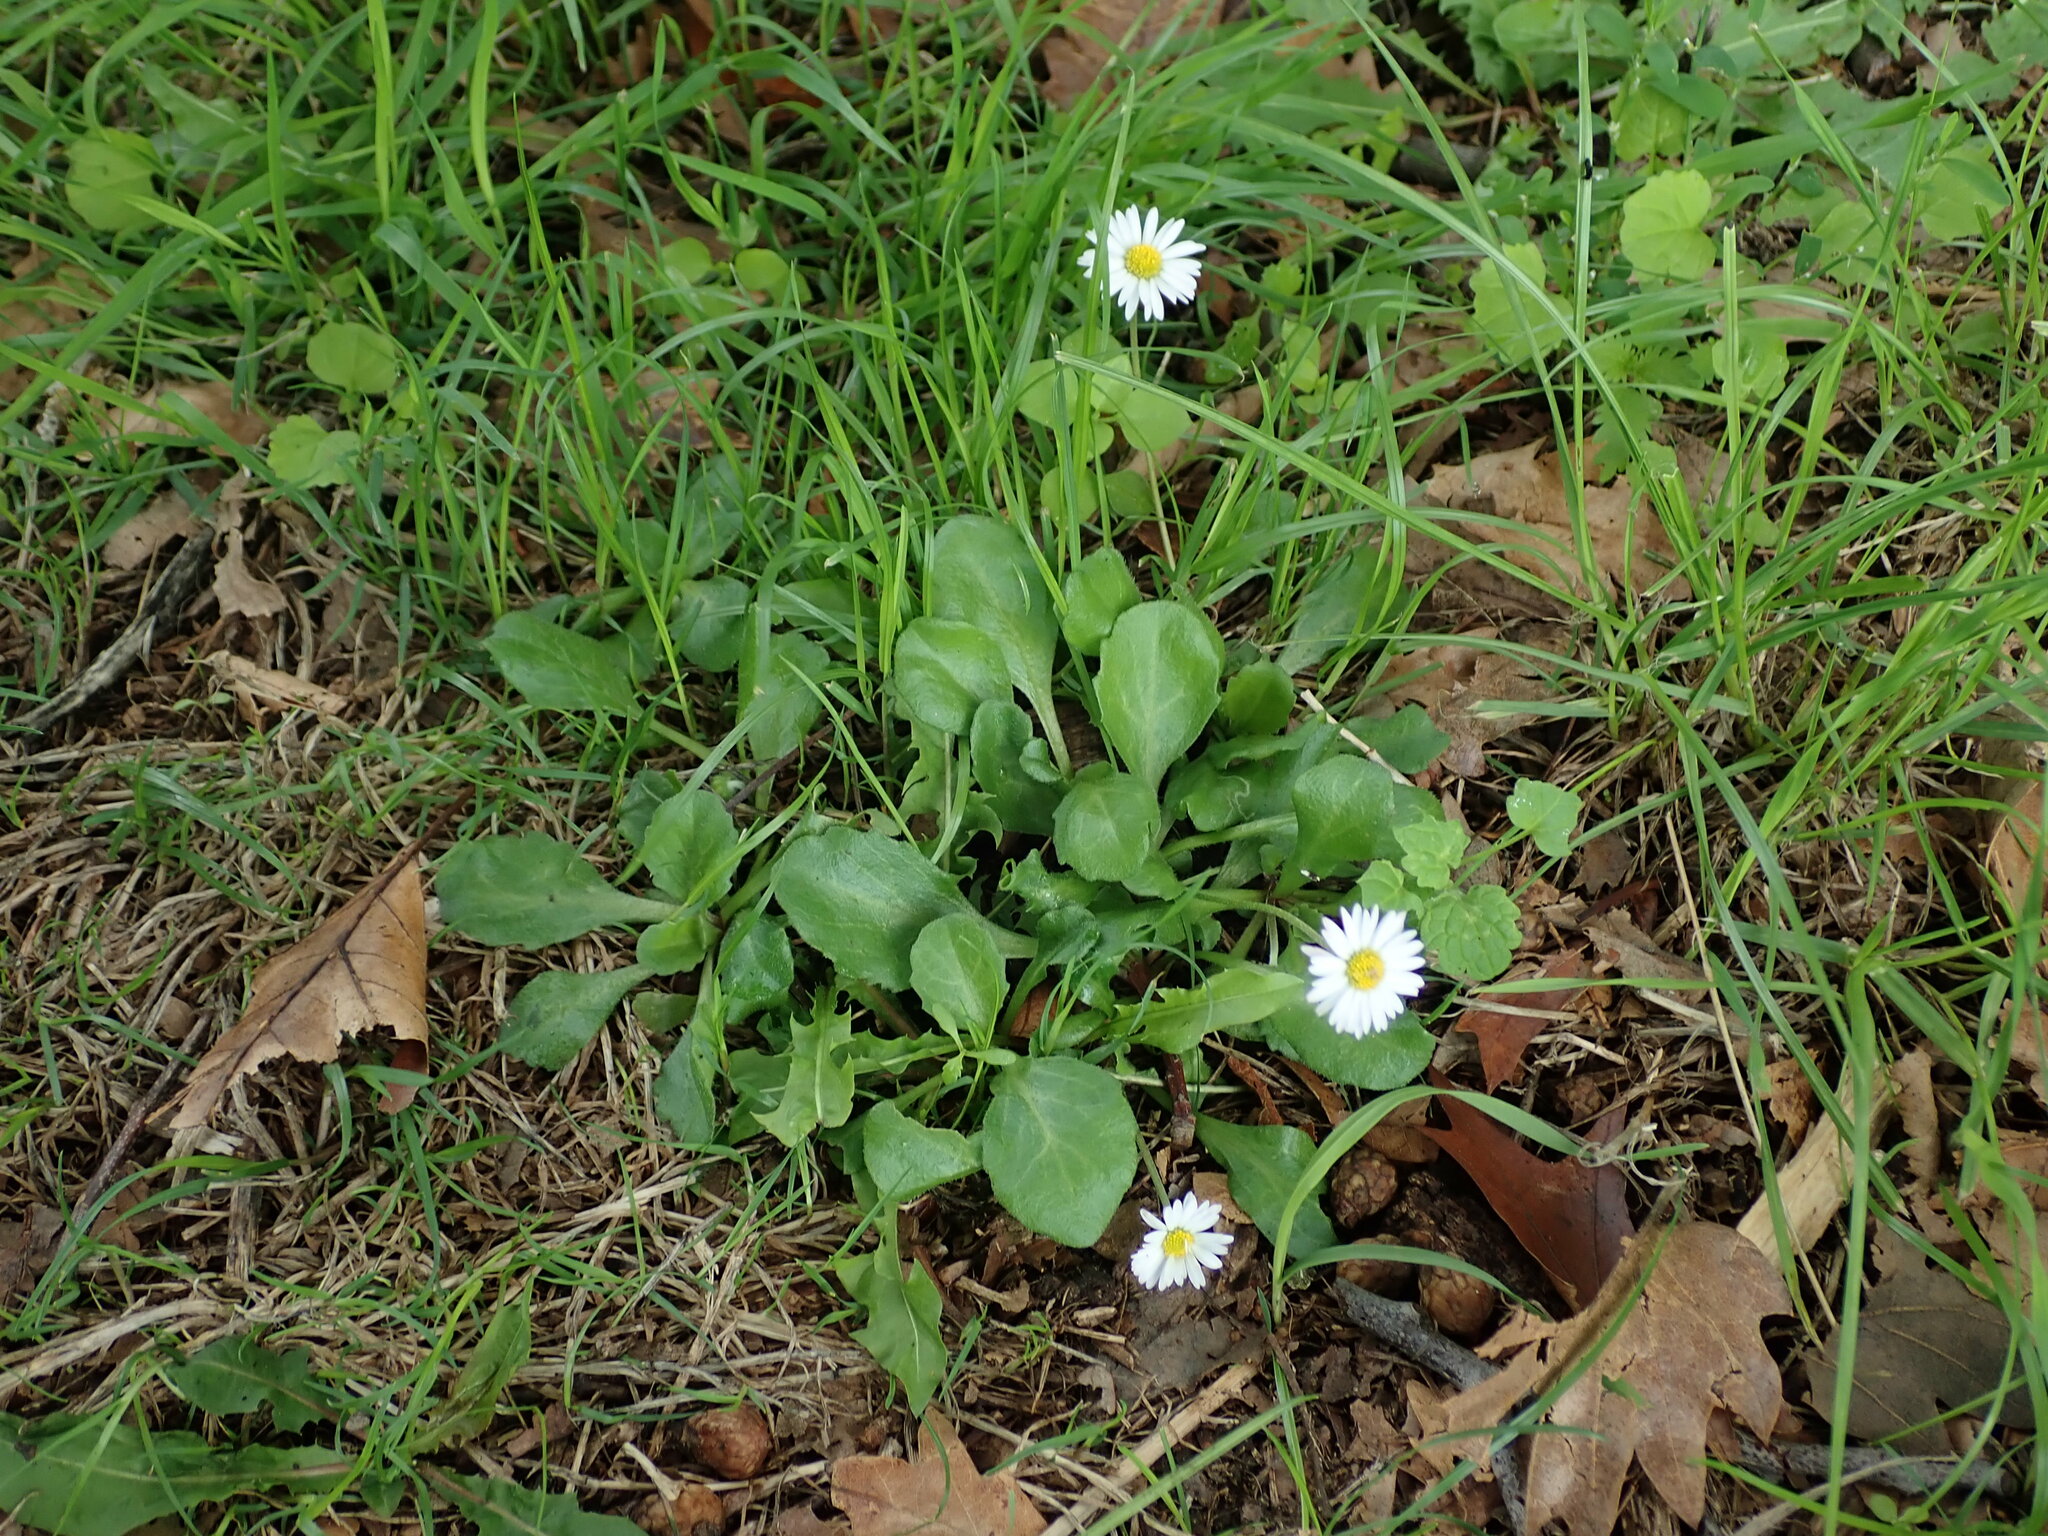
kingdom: Plantae
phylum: Tracheophyta
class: Magnoliopsida
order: Asterales
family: Asteraceae
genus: Bellis
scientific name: Bellis perennis
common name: Lawndaisy
